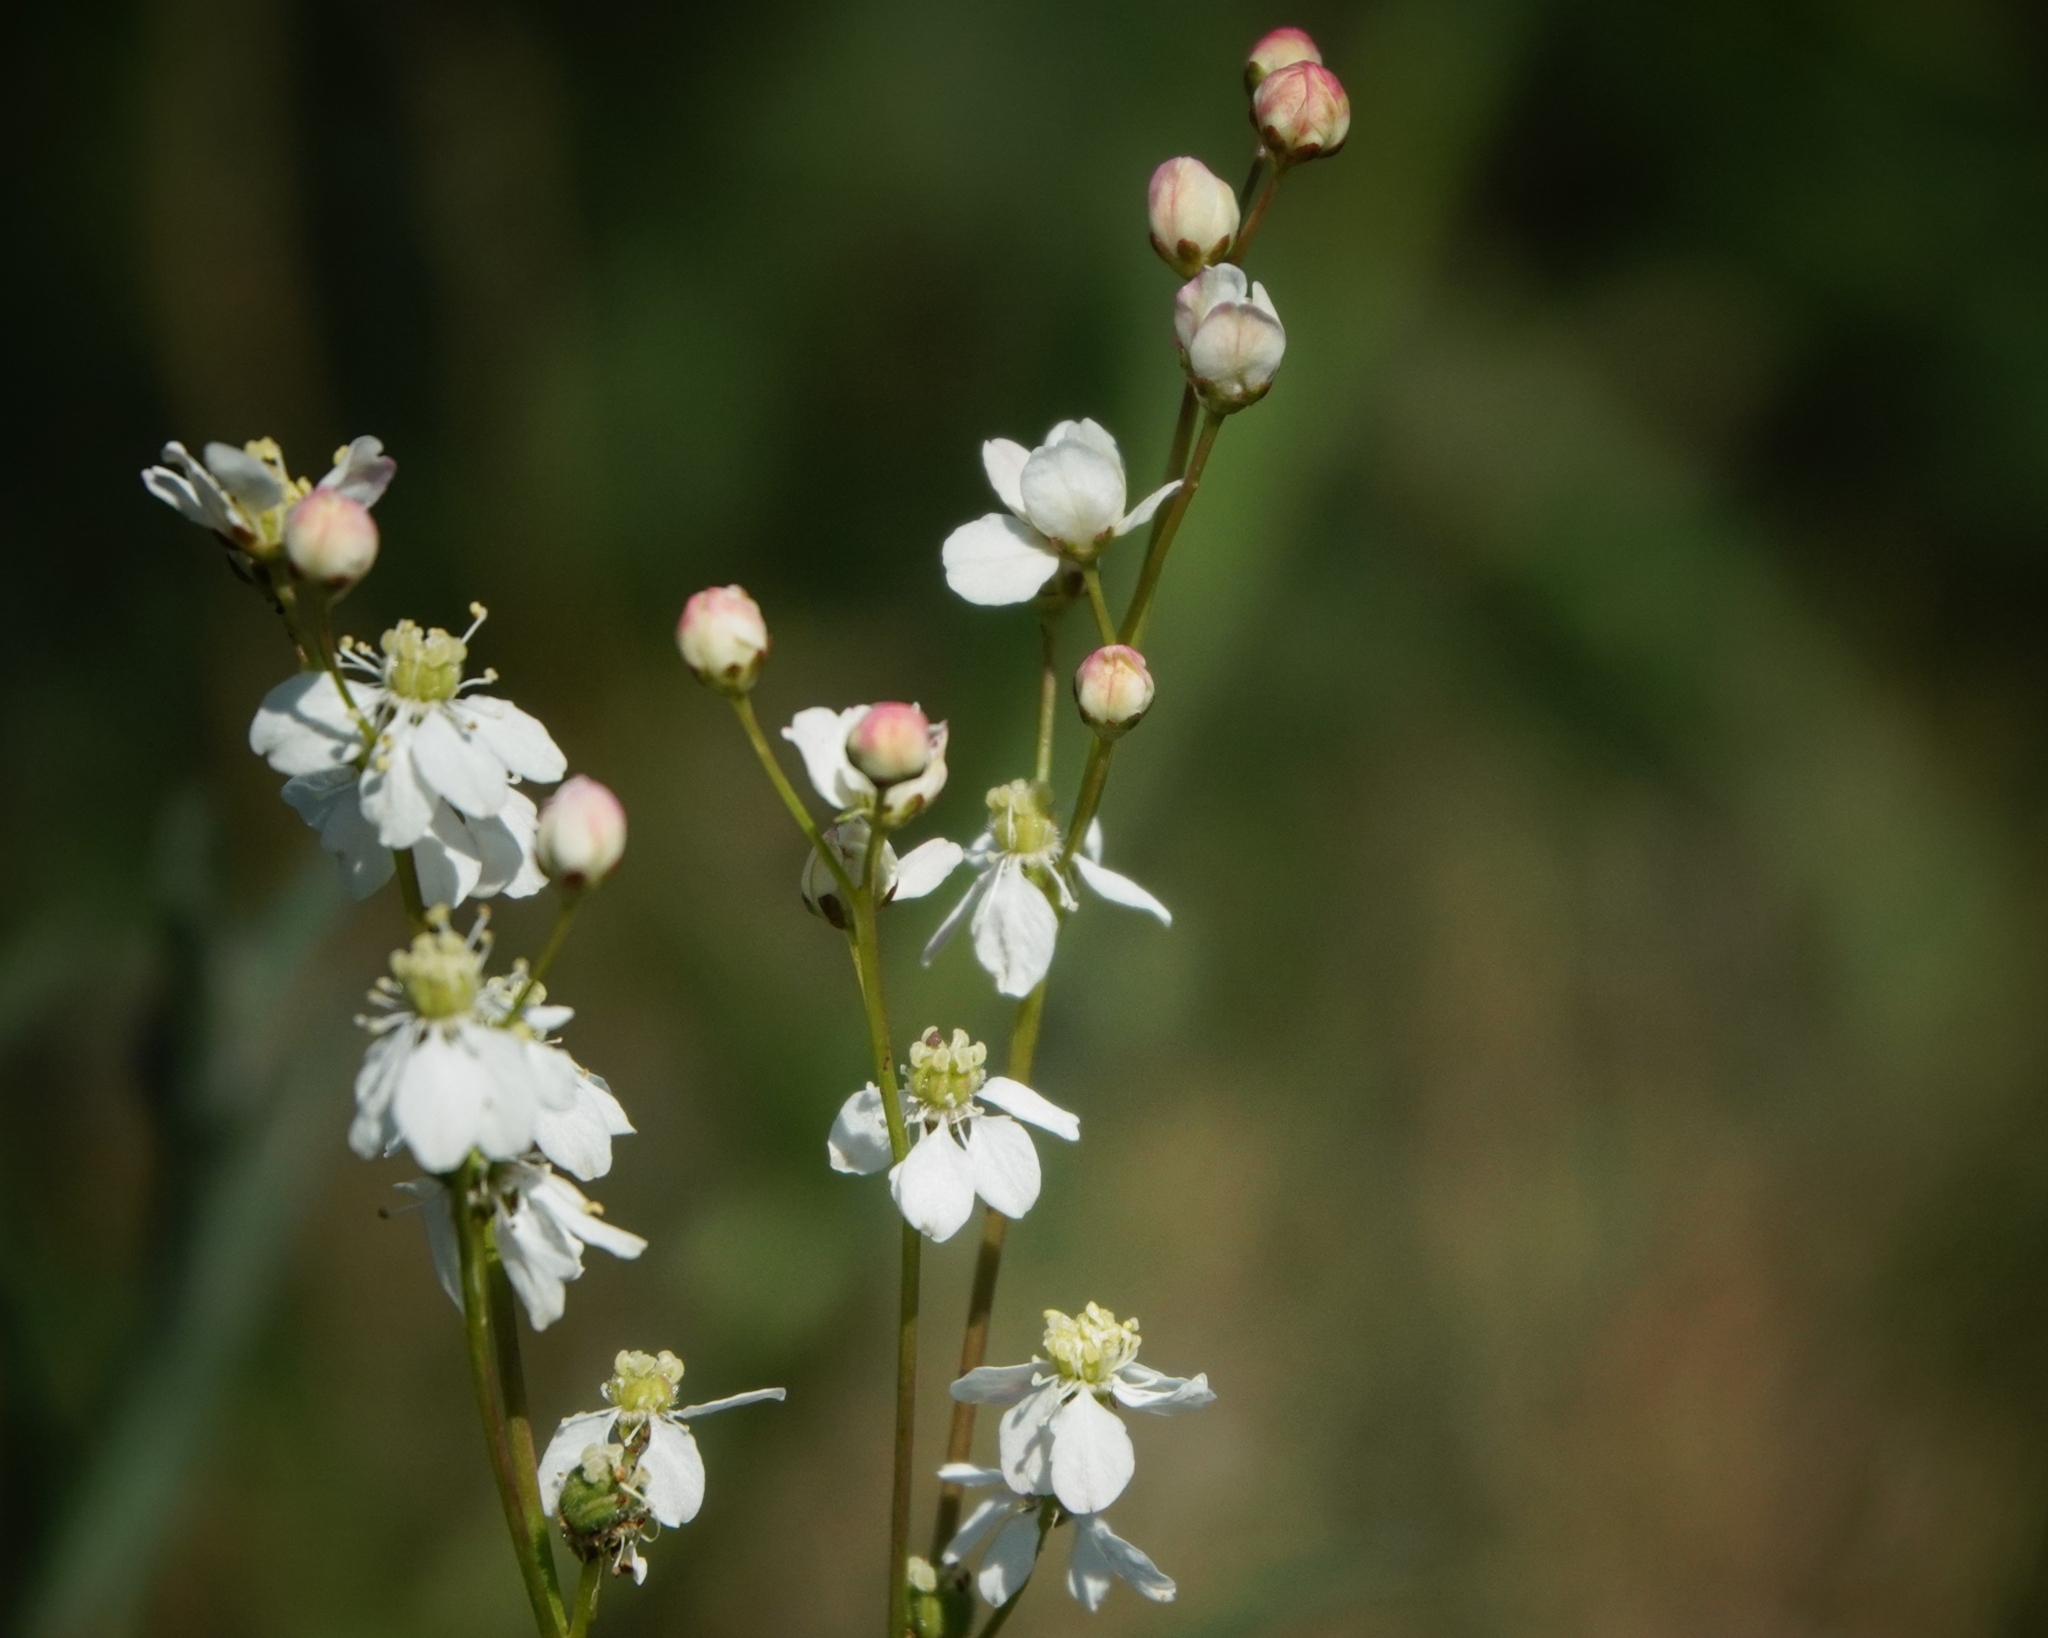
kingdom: Plantae
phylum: Tracheophyta
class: Magnoliopsida
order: Rosales
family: Rosaceae
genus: Filipendula
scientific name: Filipendula vulgaris
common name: Dropwort
